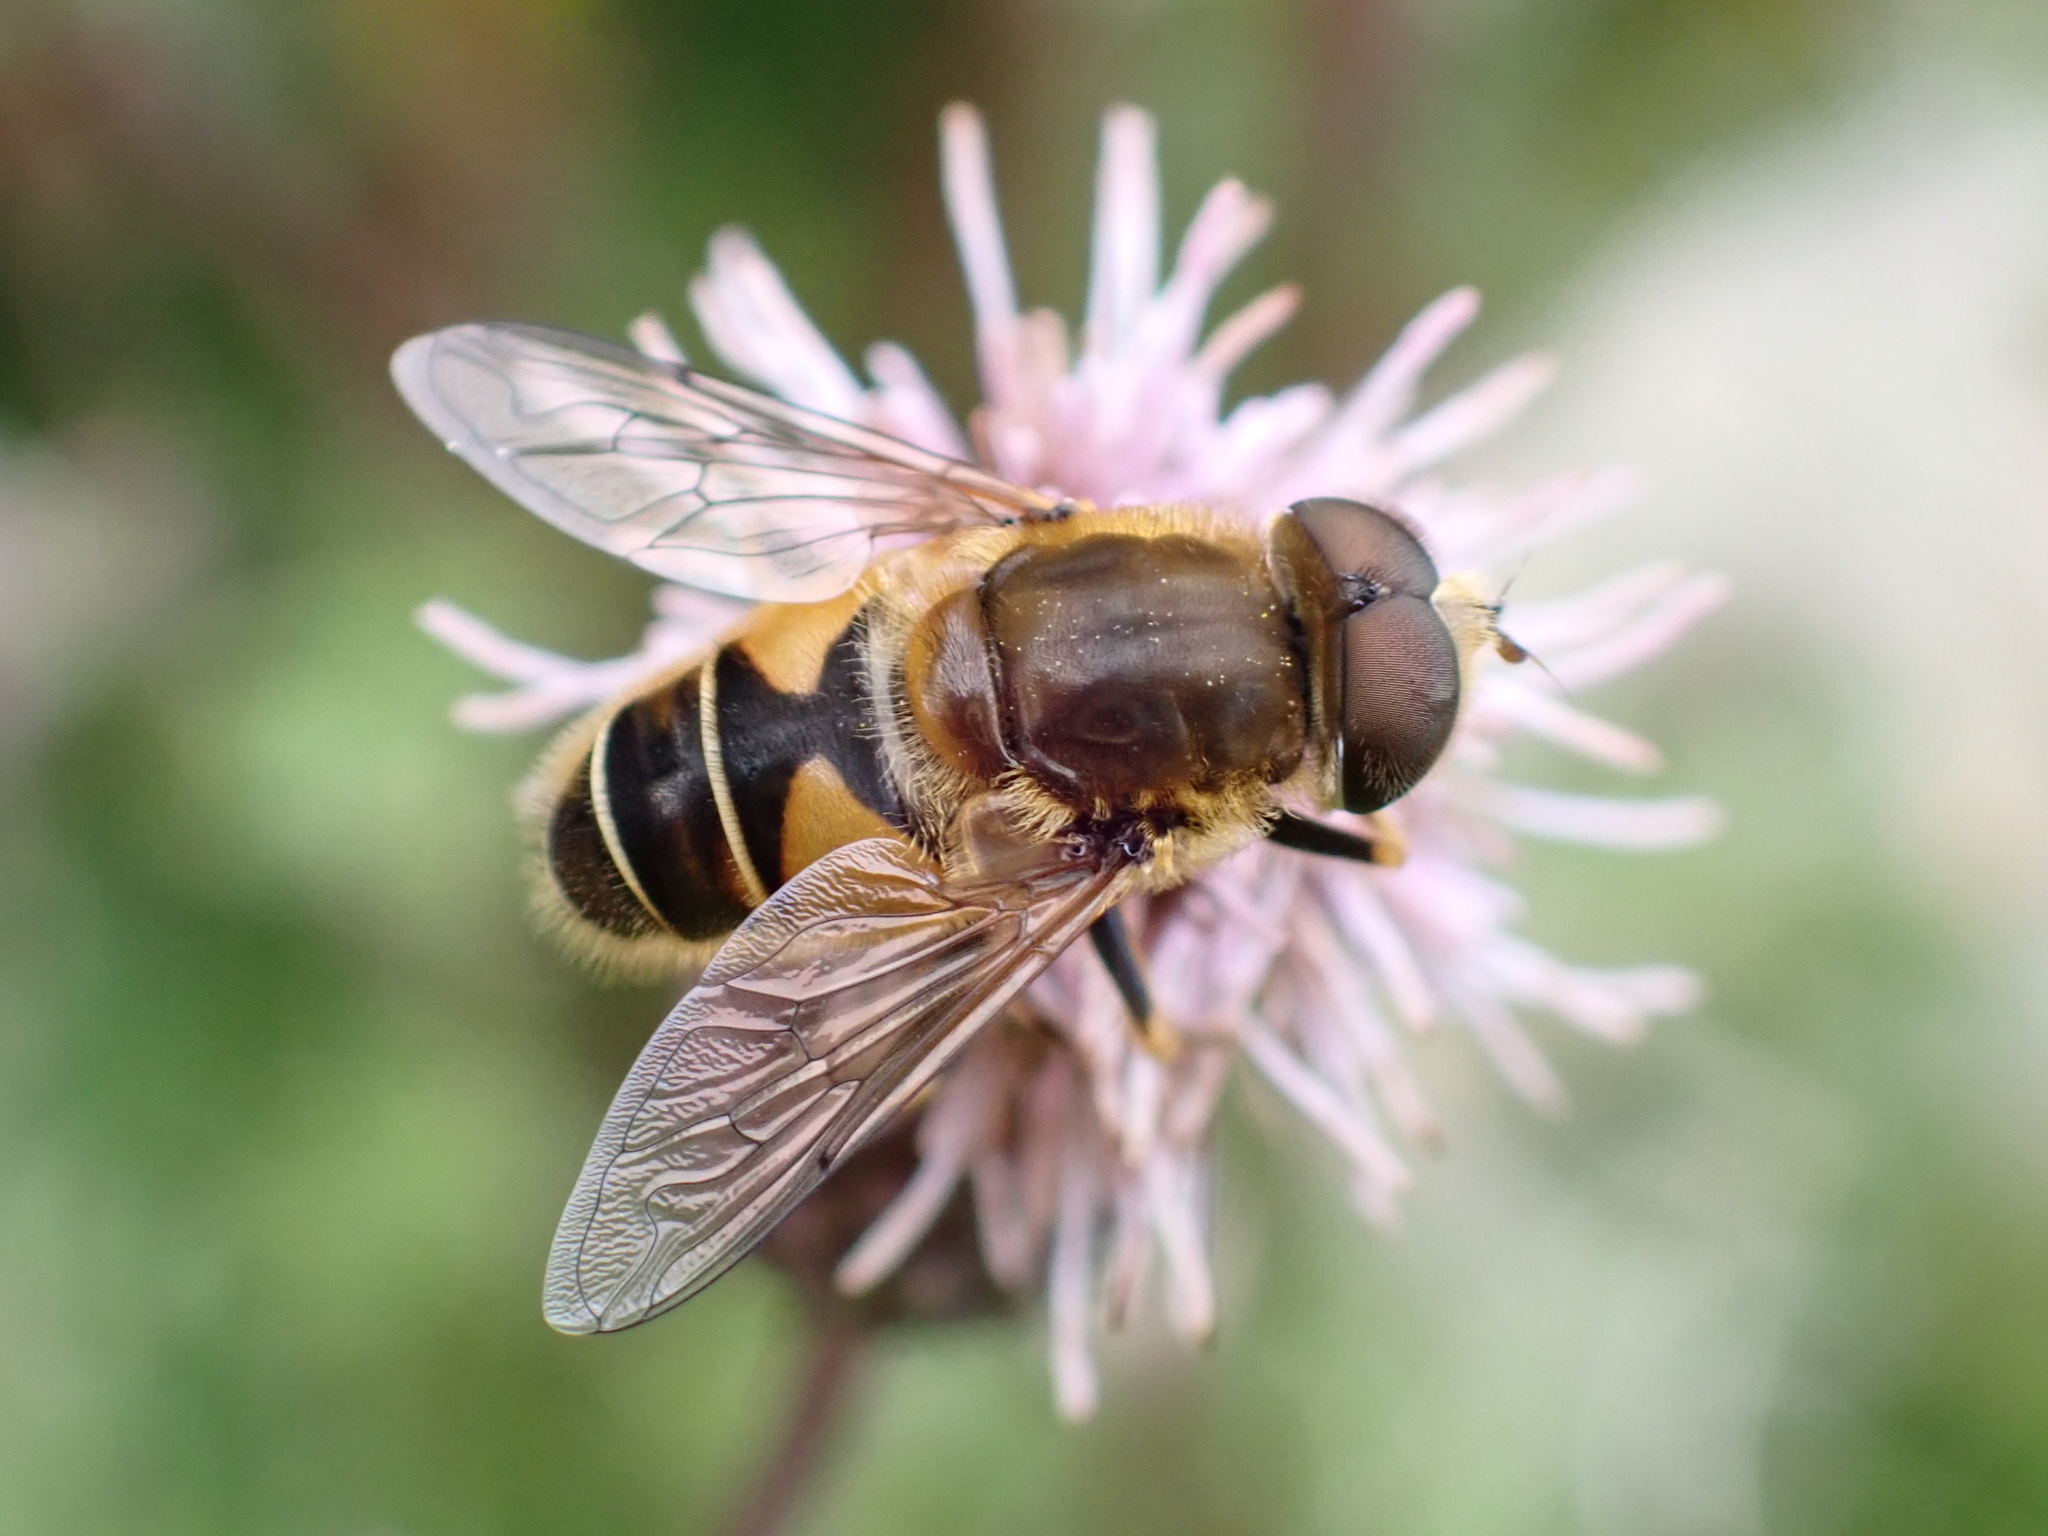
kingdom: Animalia
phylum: Arthropoda
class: Insecta
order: Diptera
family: Syrphidae
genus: Eristalis
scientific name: Eristalis nemorum
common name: Orange-spined drone fly
